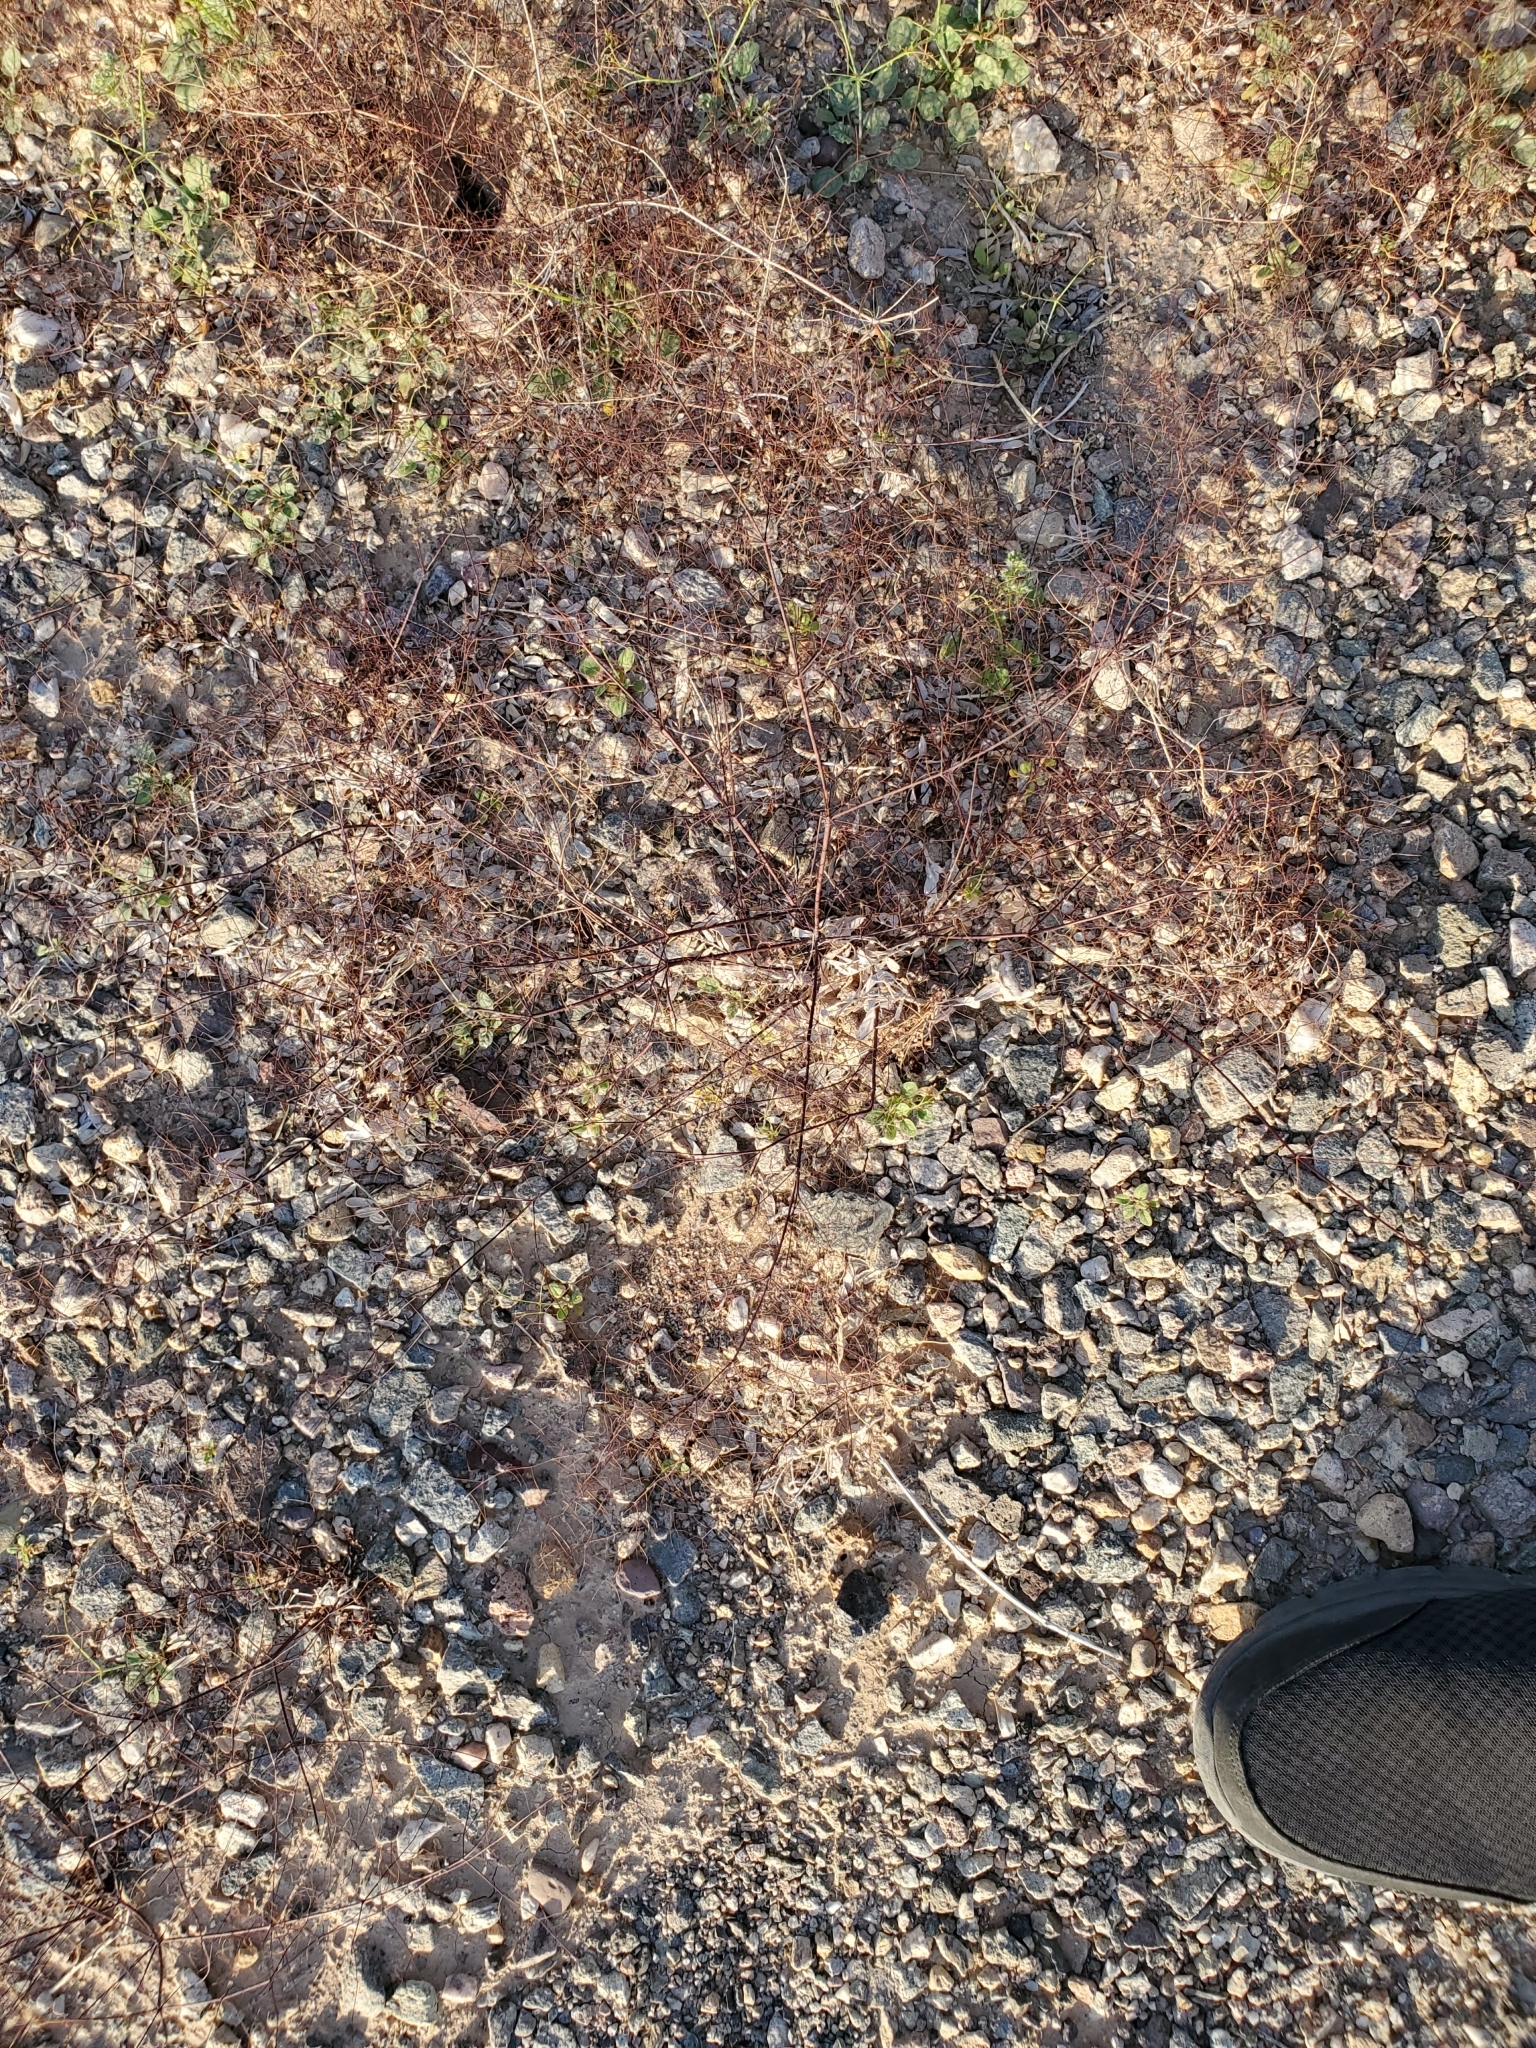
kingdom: Plantae
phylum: Tracheophyta
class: Magnoliopsida
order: Caryophyllales
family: Polygonaceae
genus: Eriogonum
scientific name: Eriogonum trichopes
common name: Little desert trumpet
